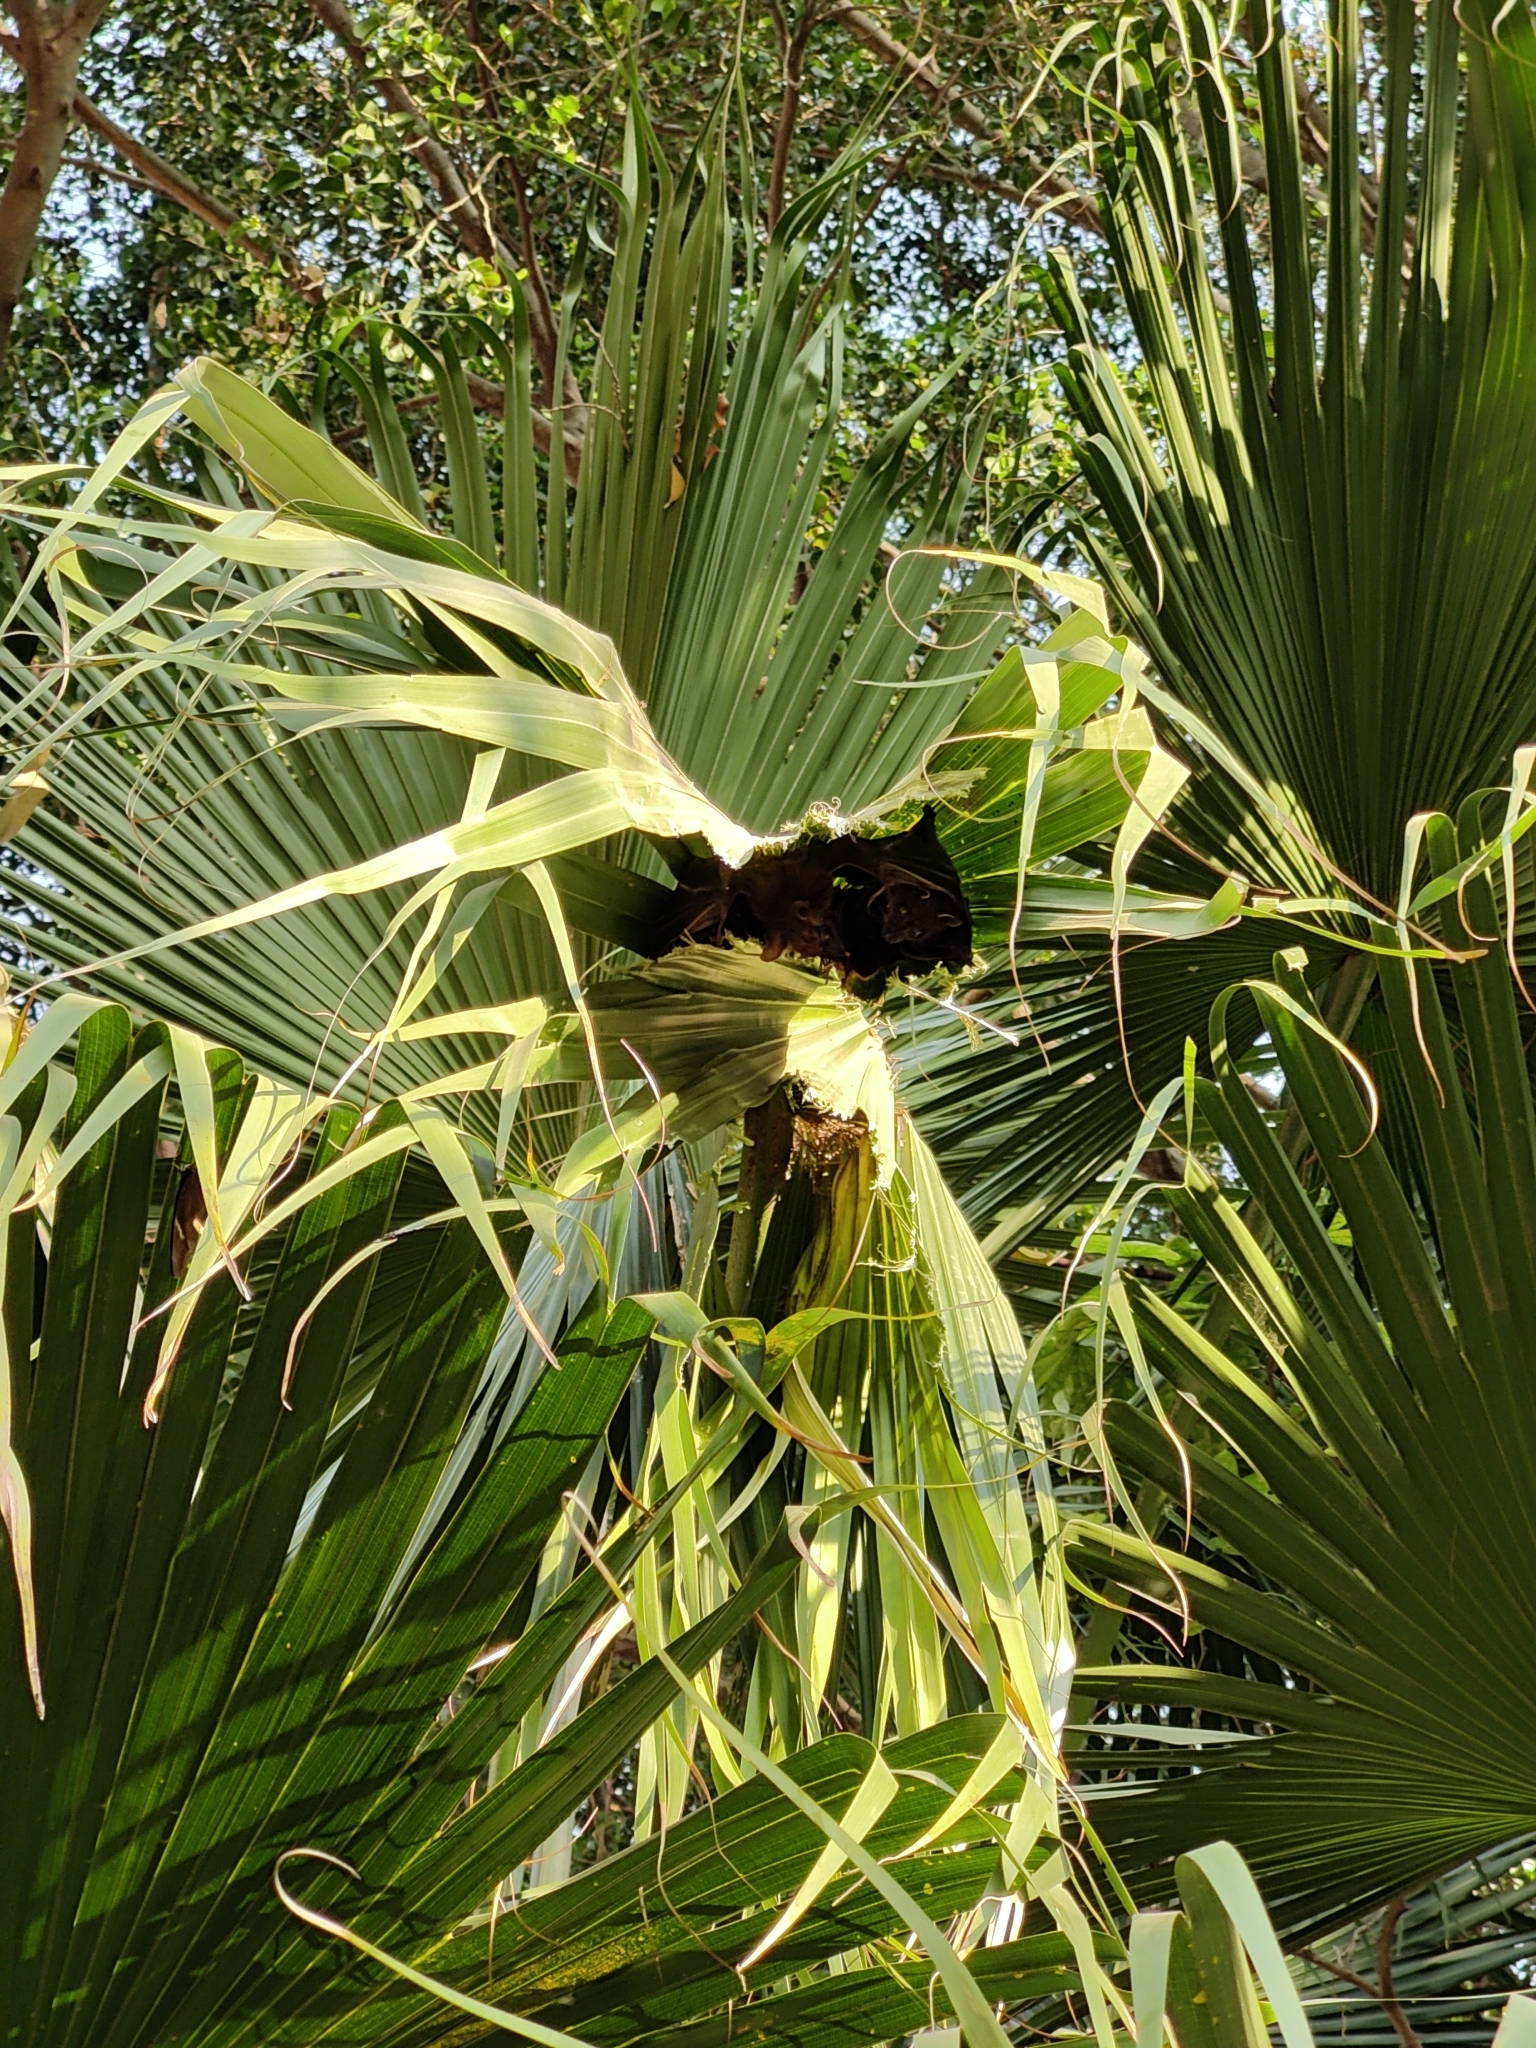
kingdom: Animalia
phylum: Chordata
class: Mammalia
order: Chiroptera
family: Pteropodidae
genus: Cynopterus
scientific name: Cynopterus sphinx
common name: Greater short-nosed fruit bat
